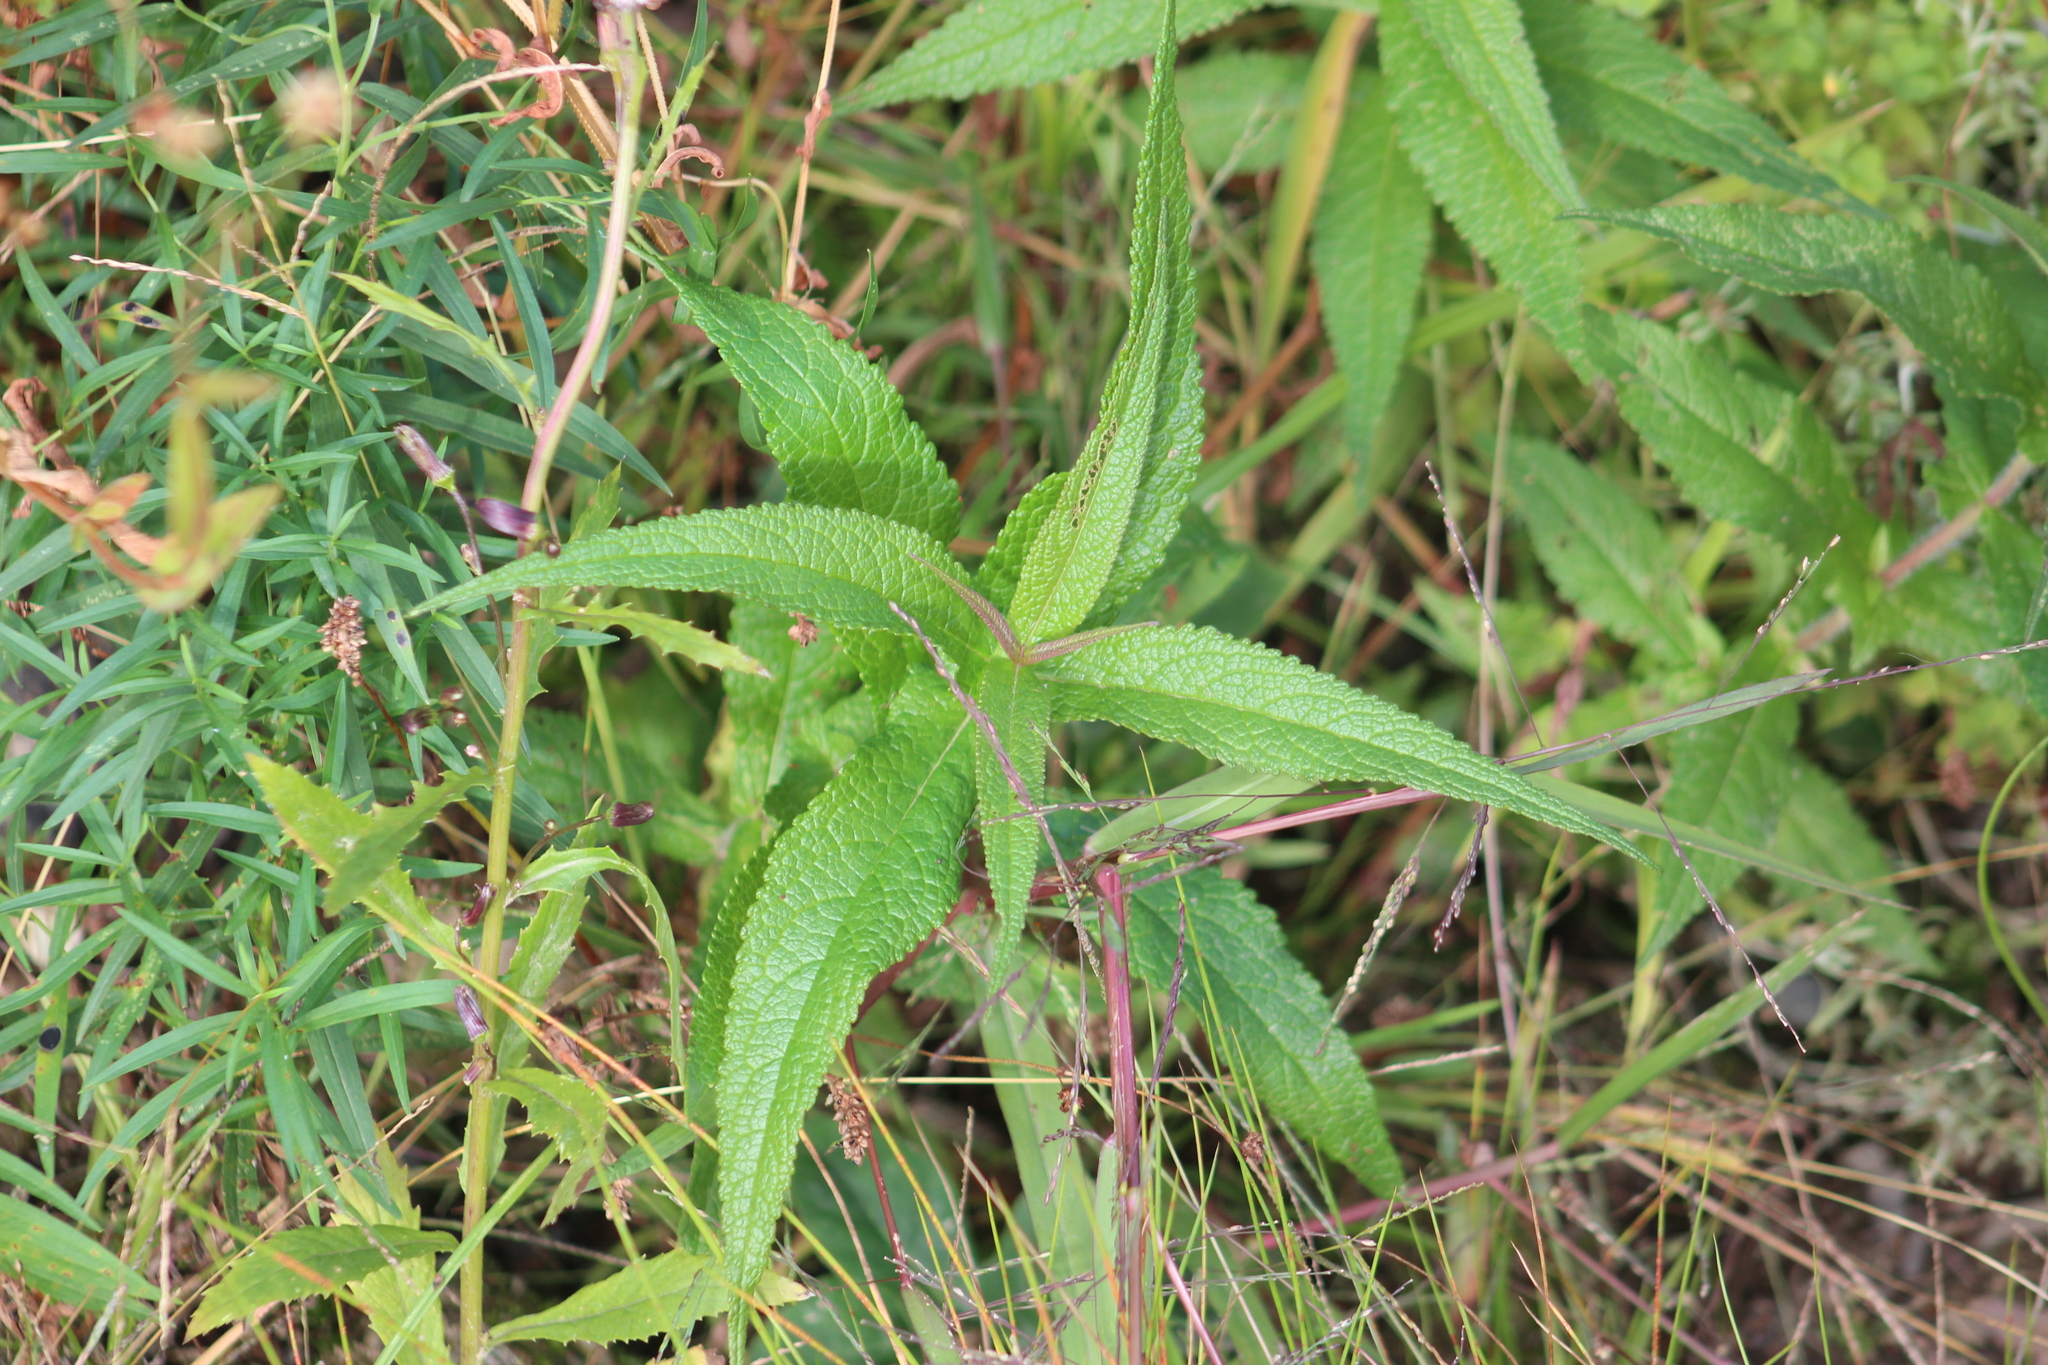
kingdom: Plantae
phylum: Tracheophyta
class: Magnoliopsida
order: Asterales
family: Asteraceae
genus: Eupatorium
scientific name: Eupatorium perfoliatum
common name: Boneset
